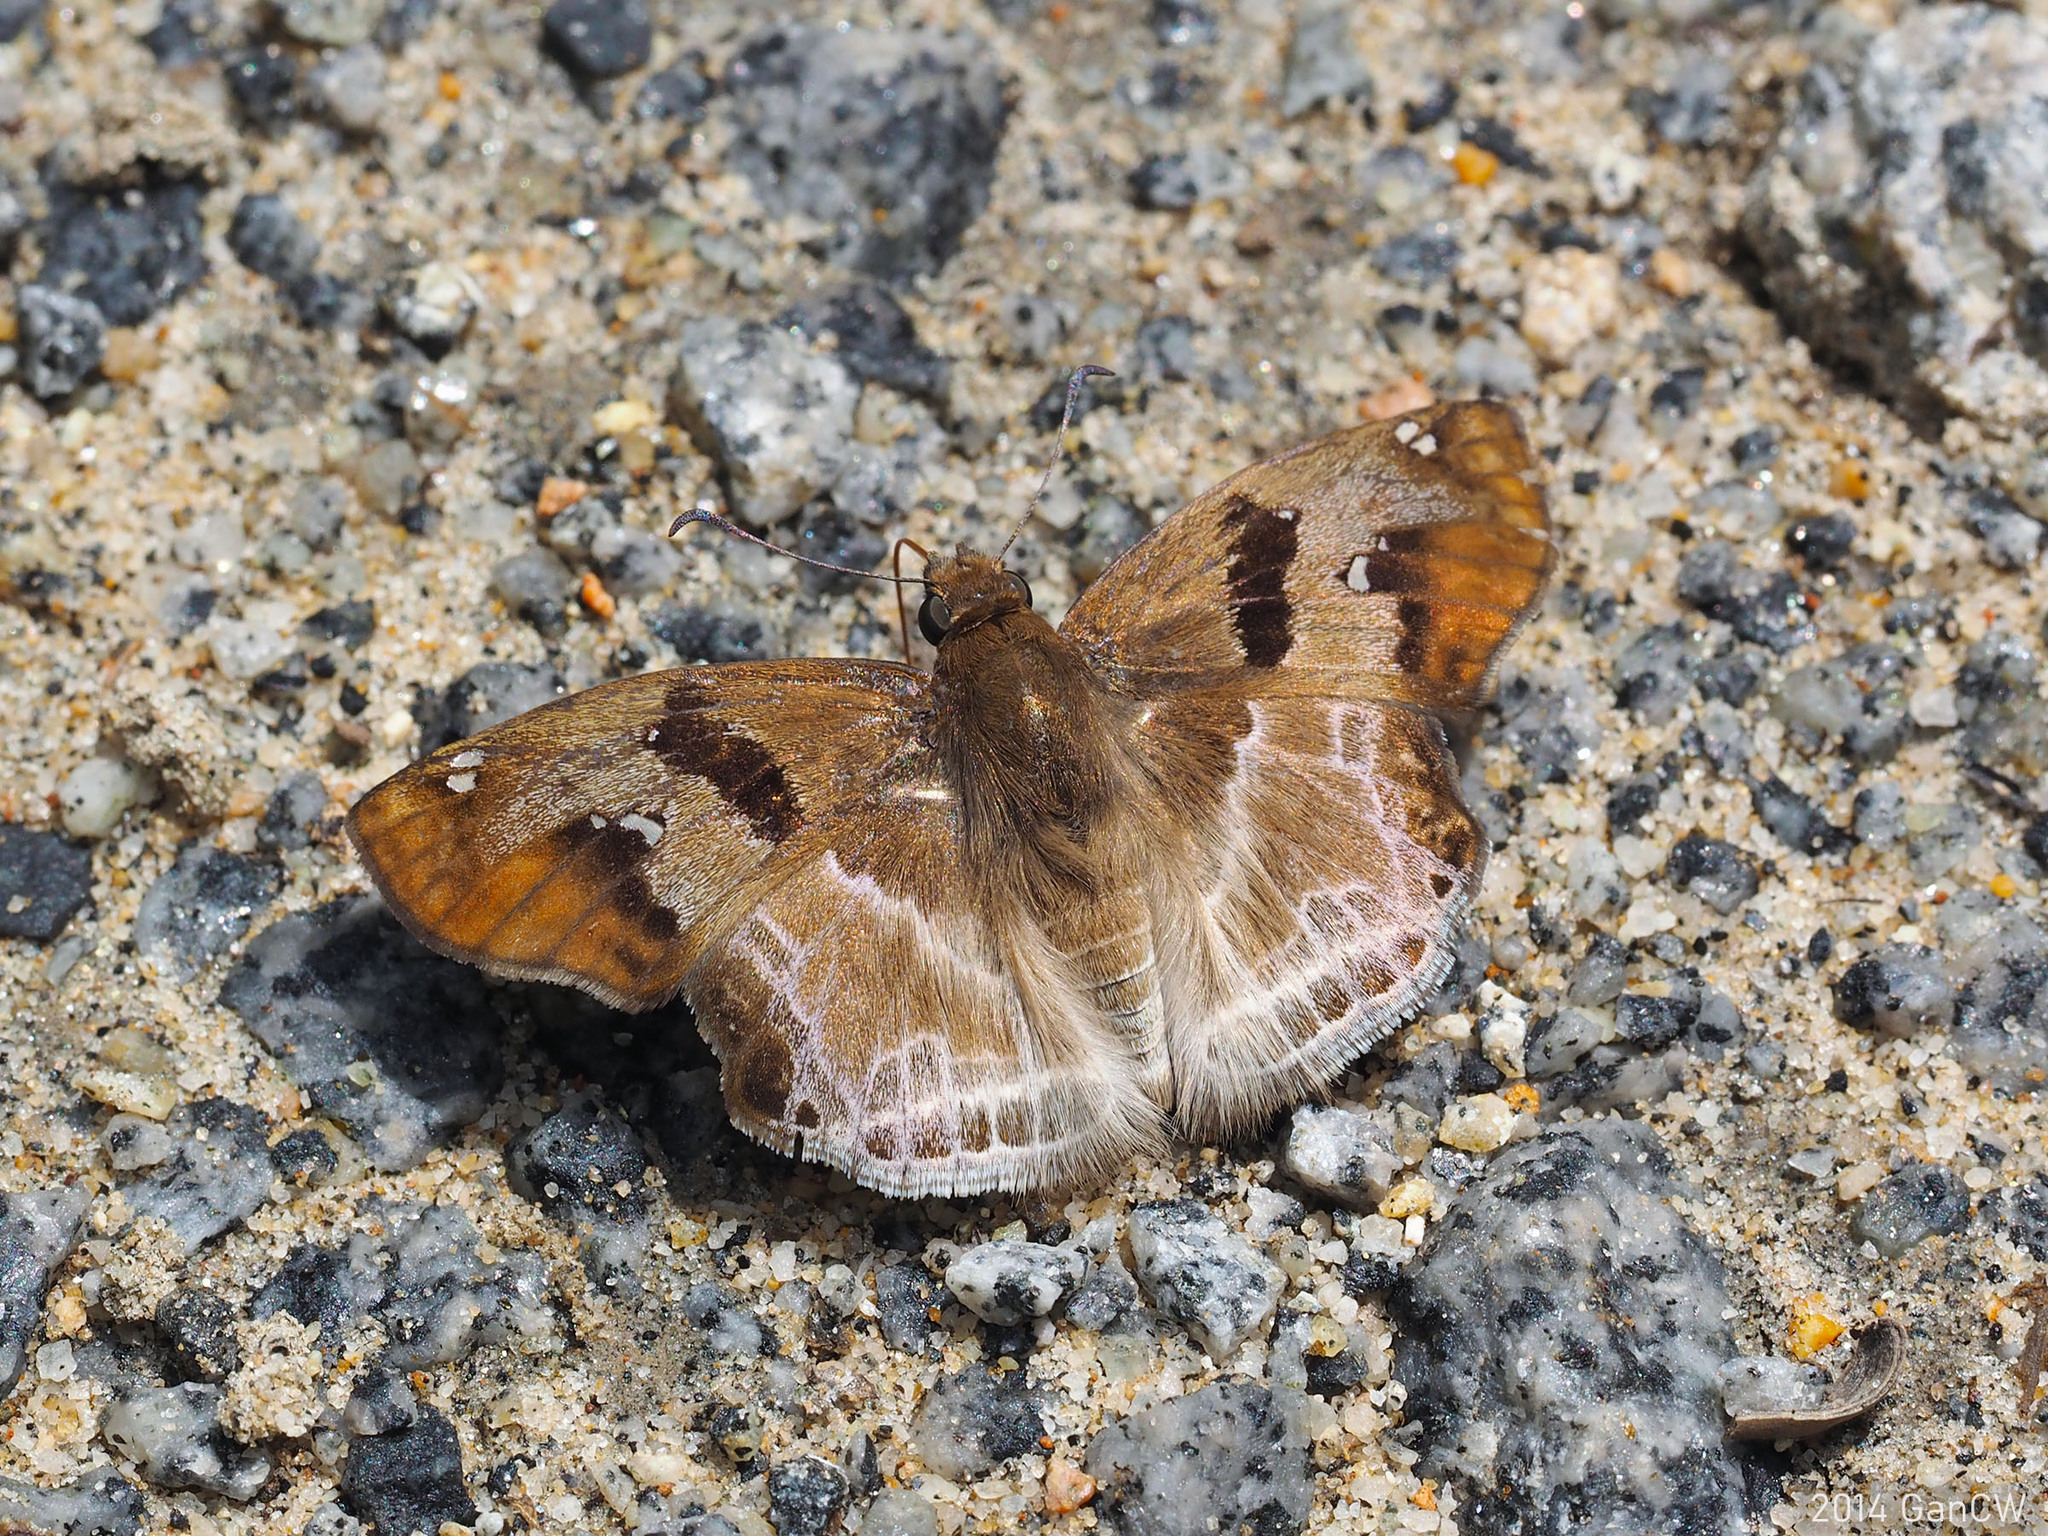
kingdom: Animalia
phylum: Arthropoda
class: Insecta
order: Lepidoptera
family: Hesperiidae
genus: Odontoptilum
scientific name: Odontoptilum angulata
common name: Chestnut banded angle
